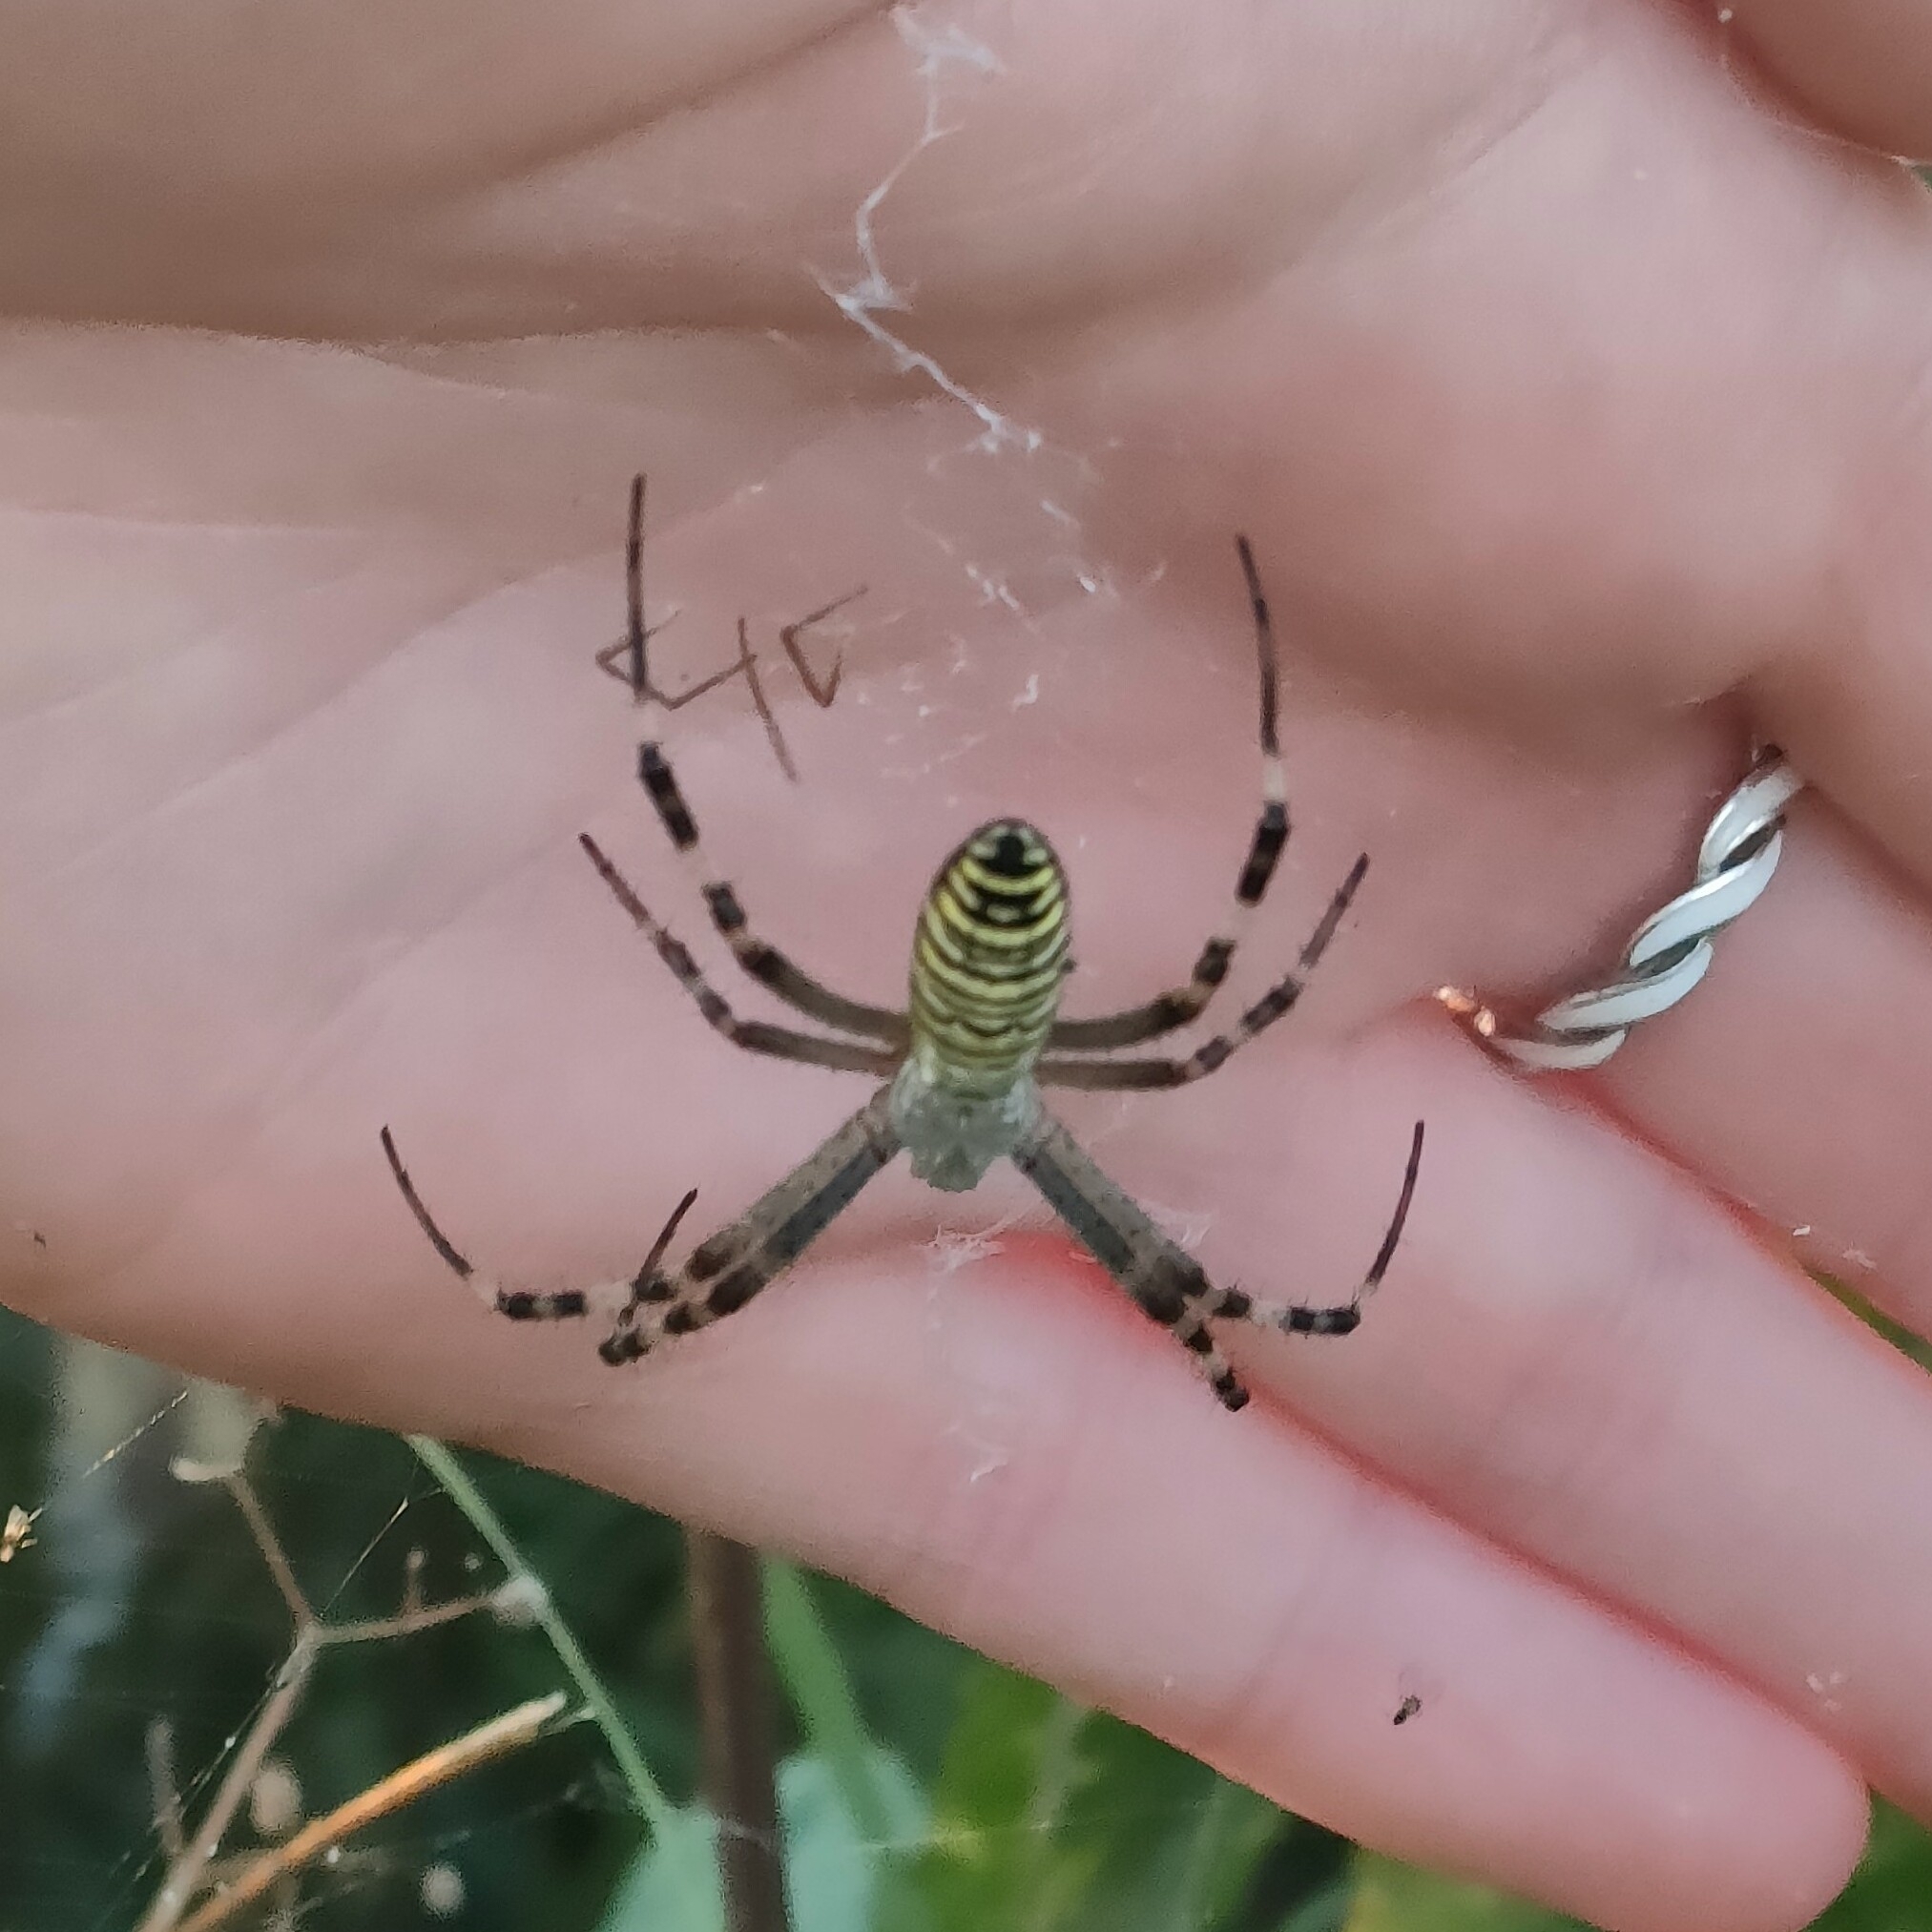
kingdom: Animalia
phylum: Arthropoda
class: Arachnida
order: Araneae
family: Araneidae
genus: Argiope
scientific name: Argiope bruennichi
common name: Wasp spider
